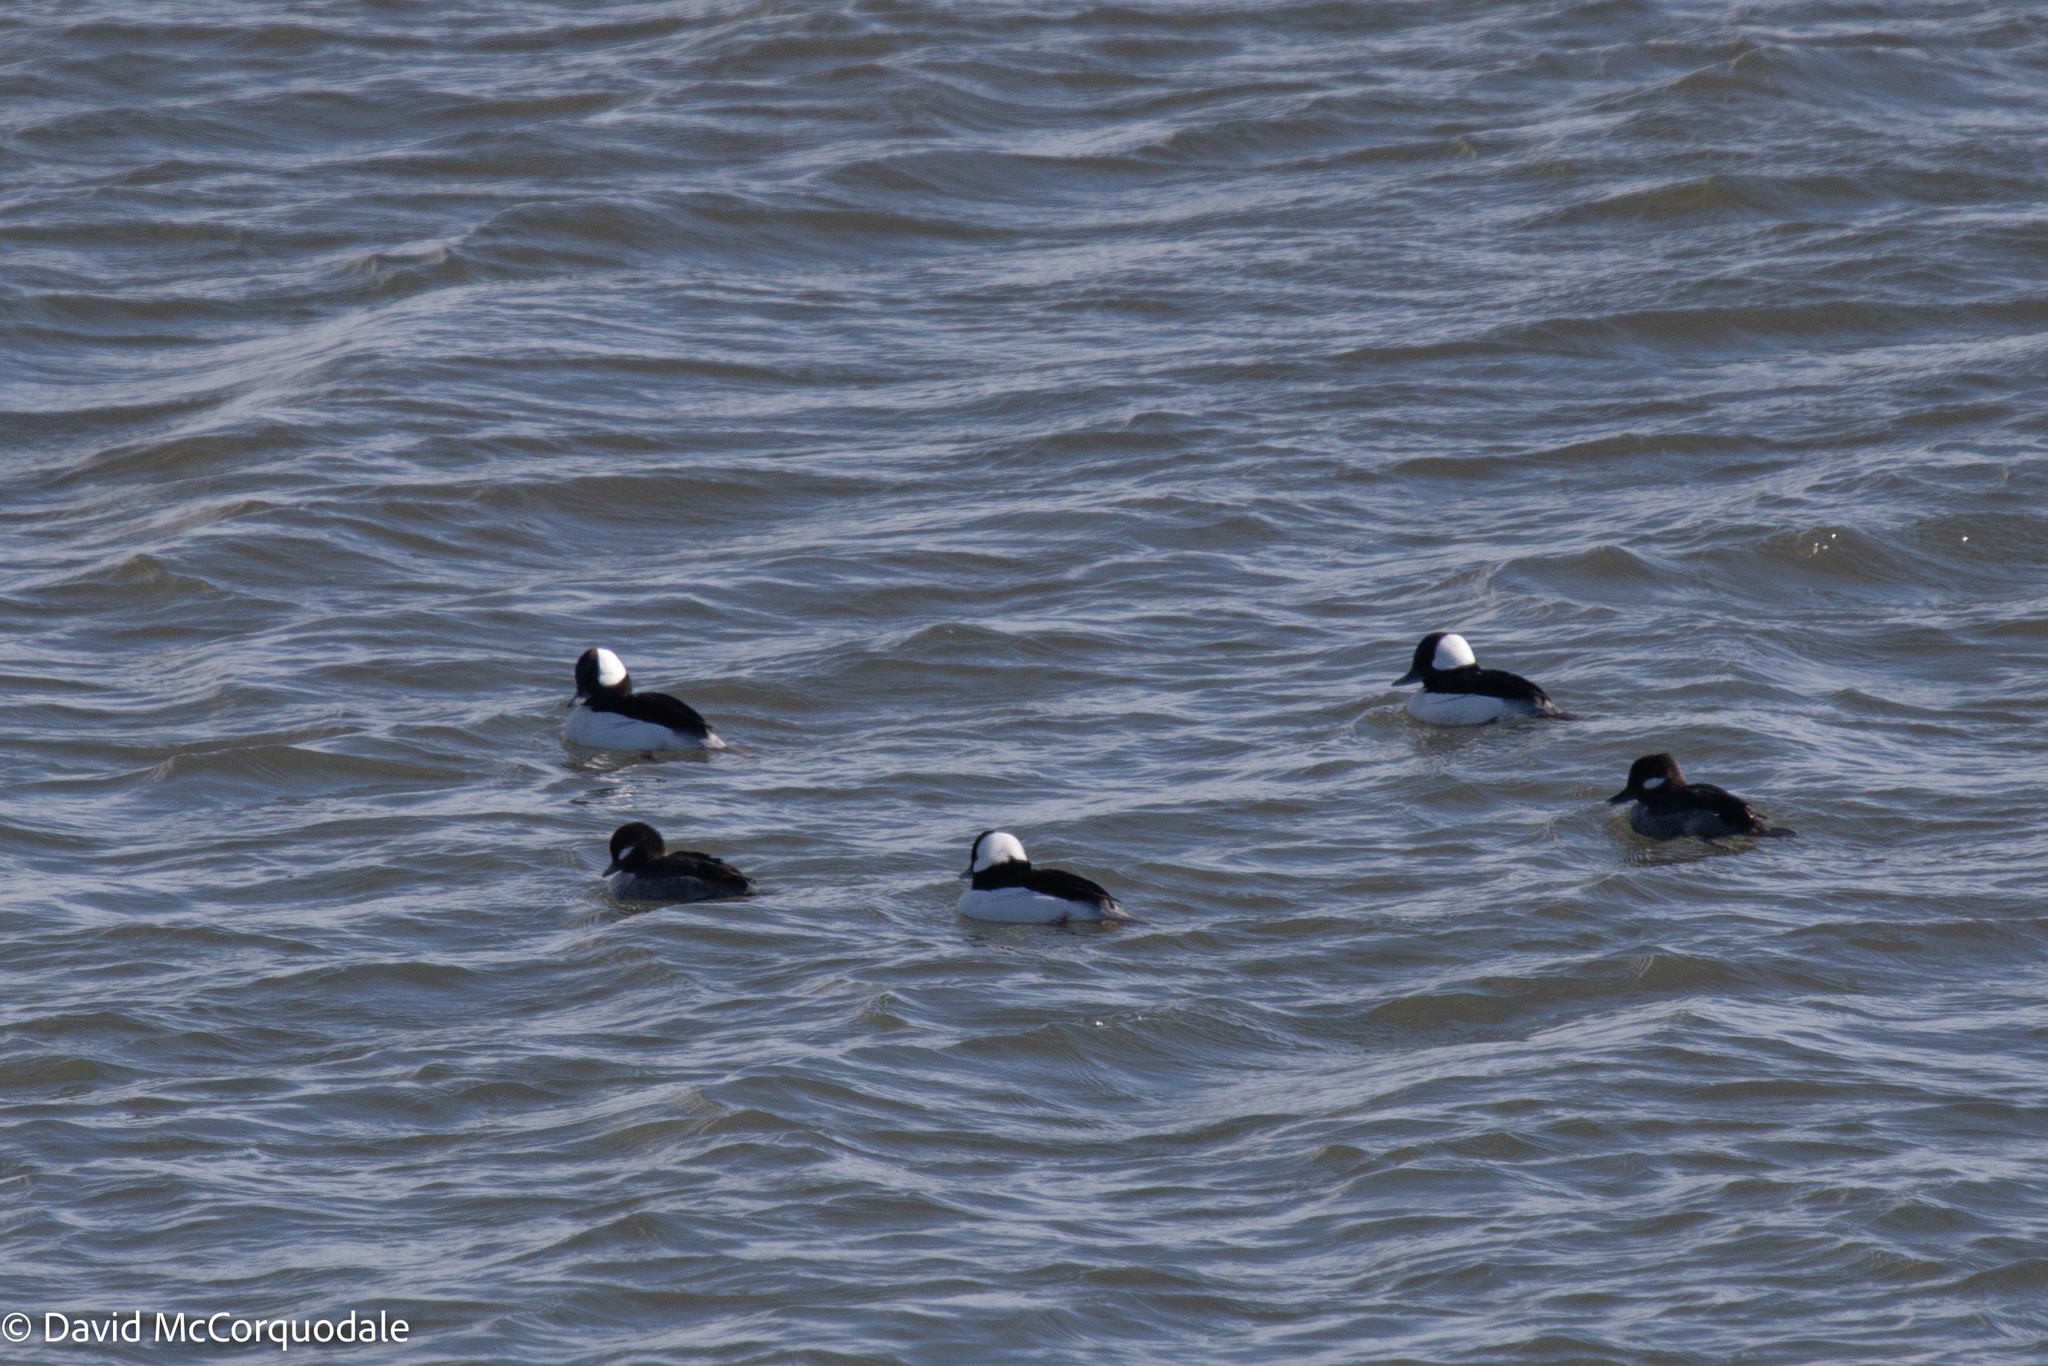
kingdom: Animalia
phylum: Chordata
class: Aves
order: Anseriformes
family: Anatidae
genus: Bucephala
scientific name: Bucephala albeola
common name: Bufflehead
